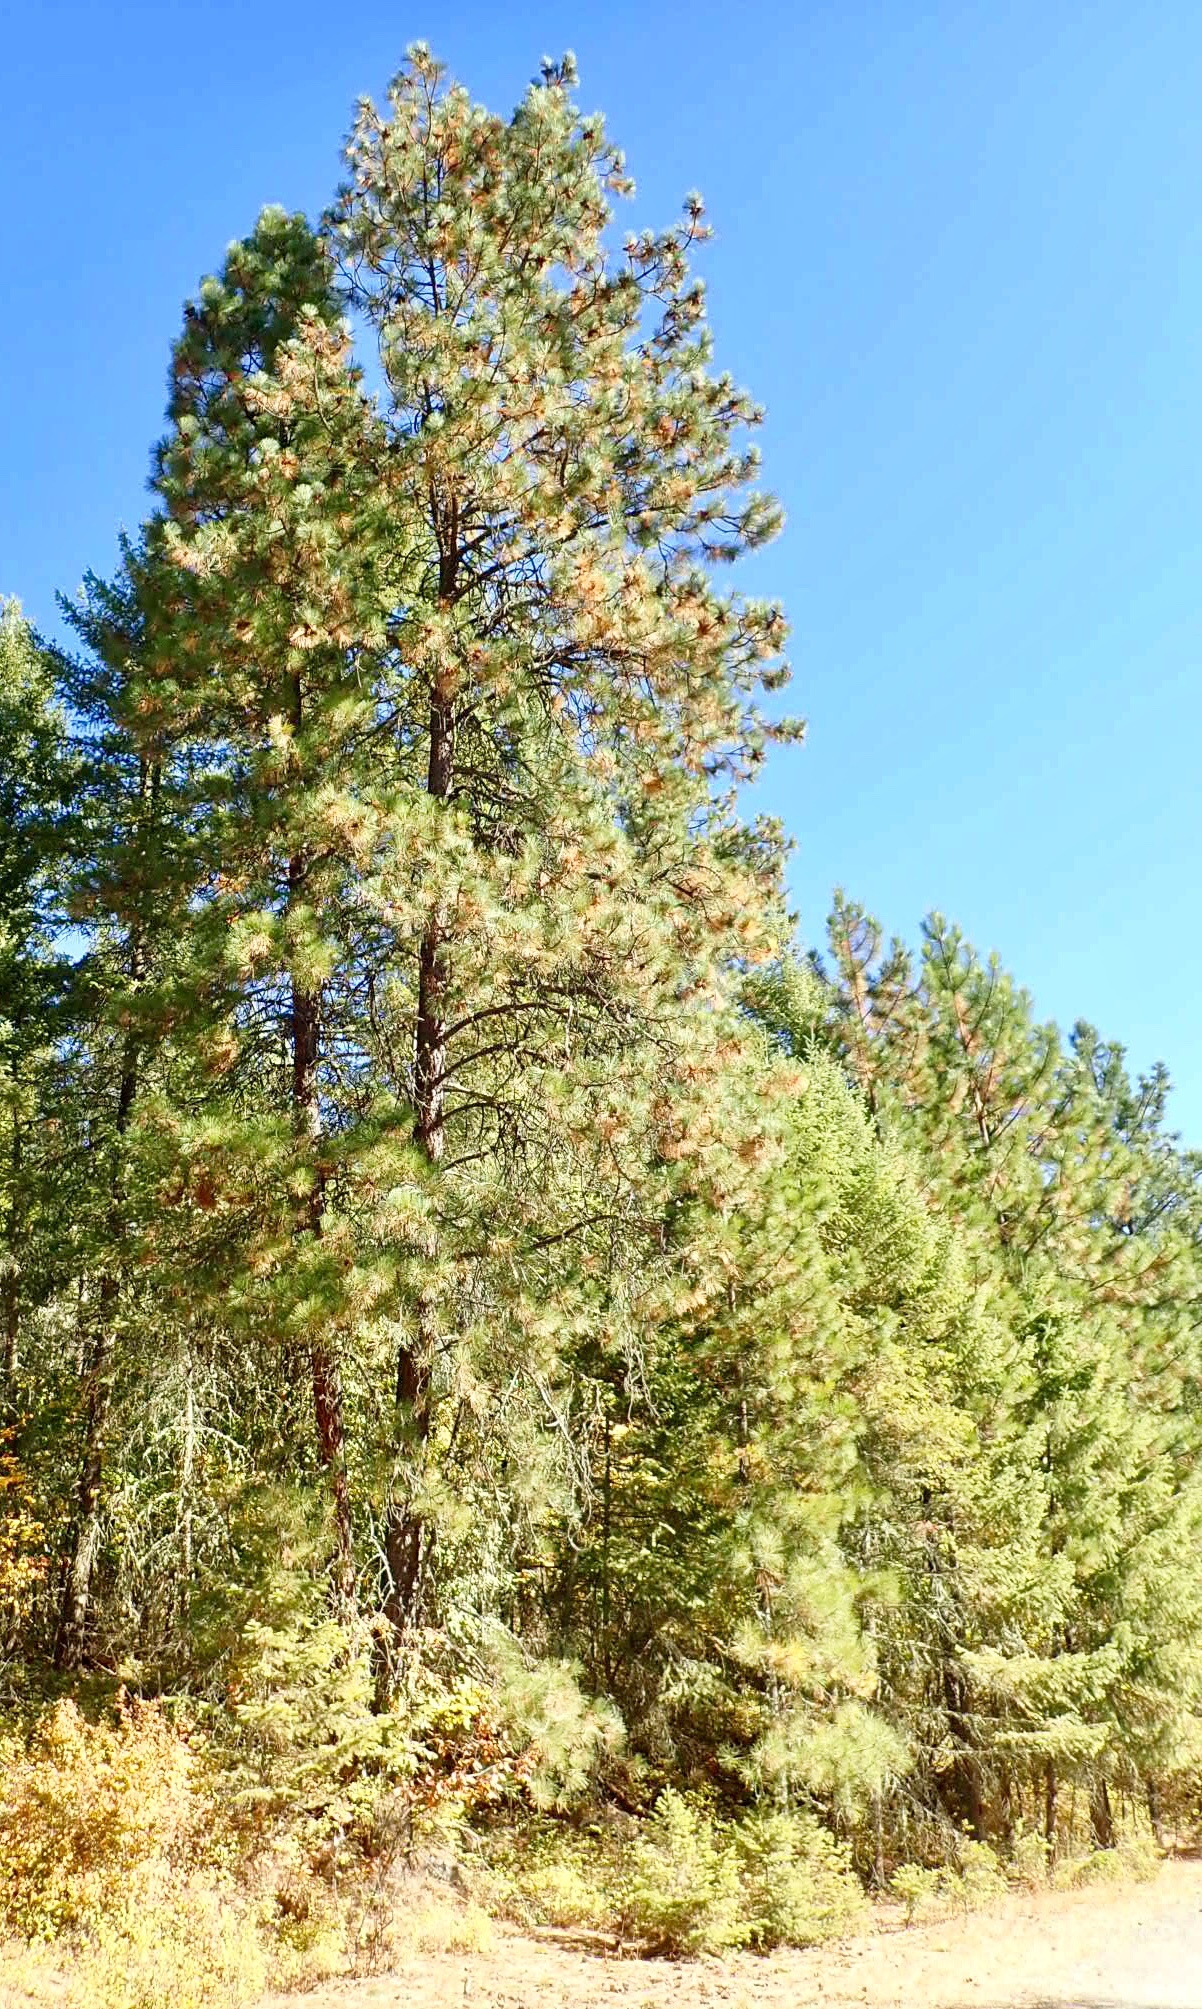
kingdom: Plantae
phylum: Tracheophyta
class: Pinopsida
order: Pinales
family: Pinaceae
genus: Pinus
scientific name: Pinus ponderosa
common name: Western yellow-pine
